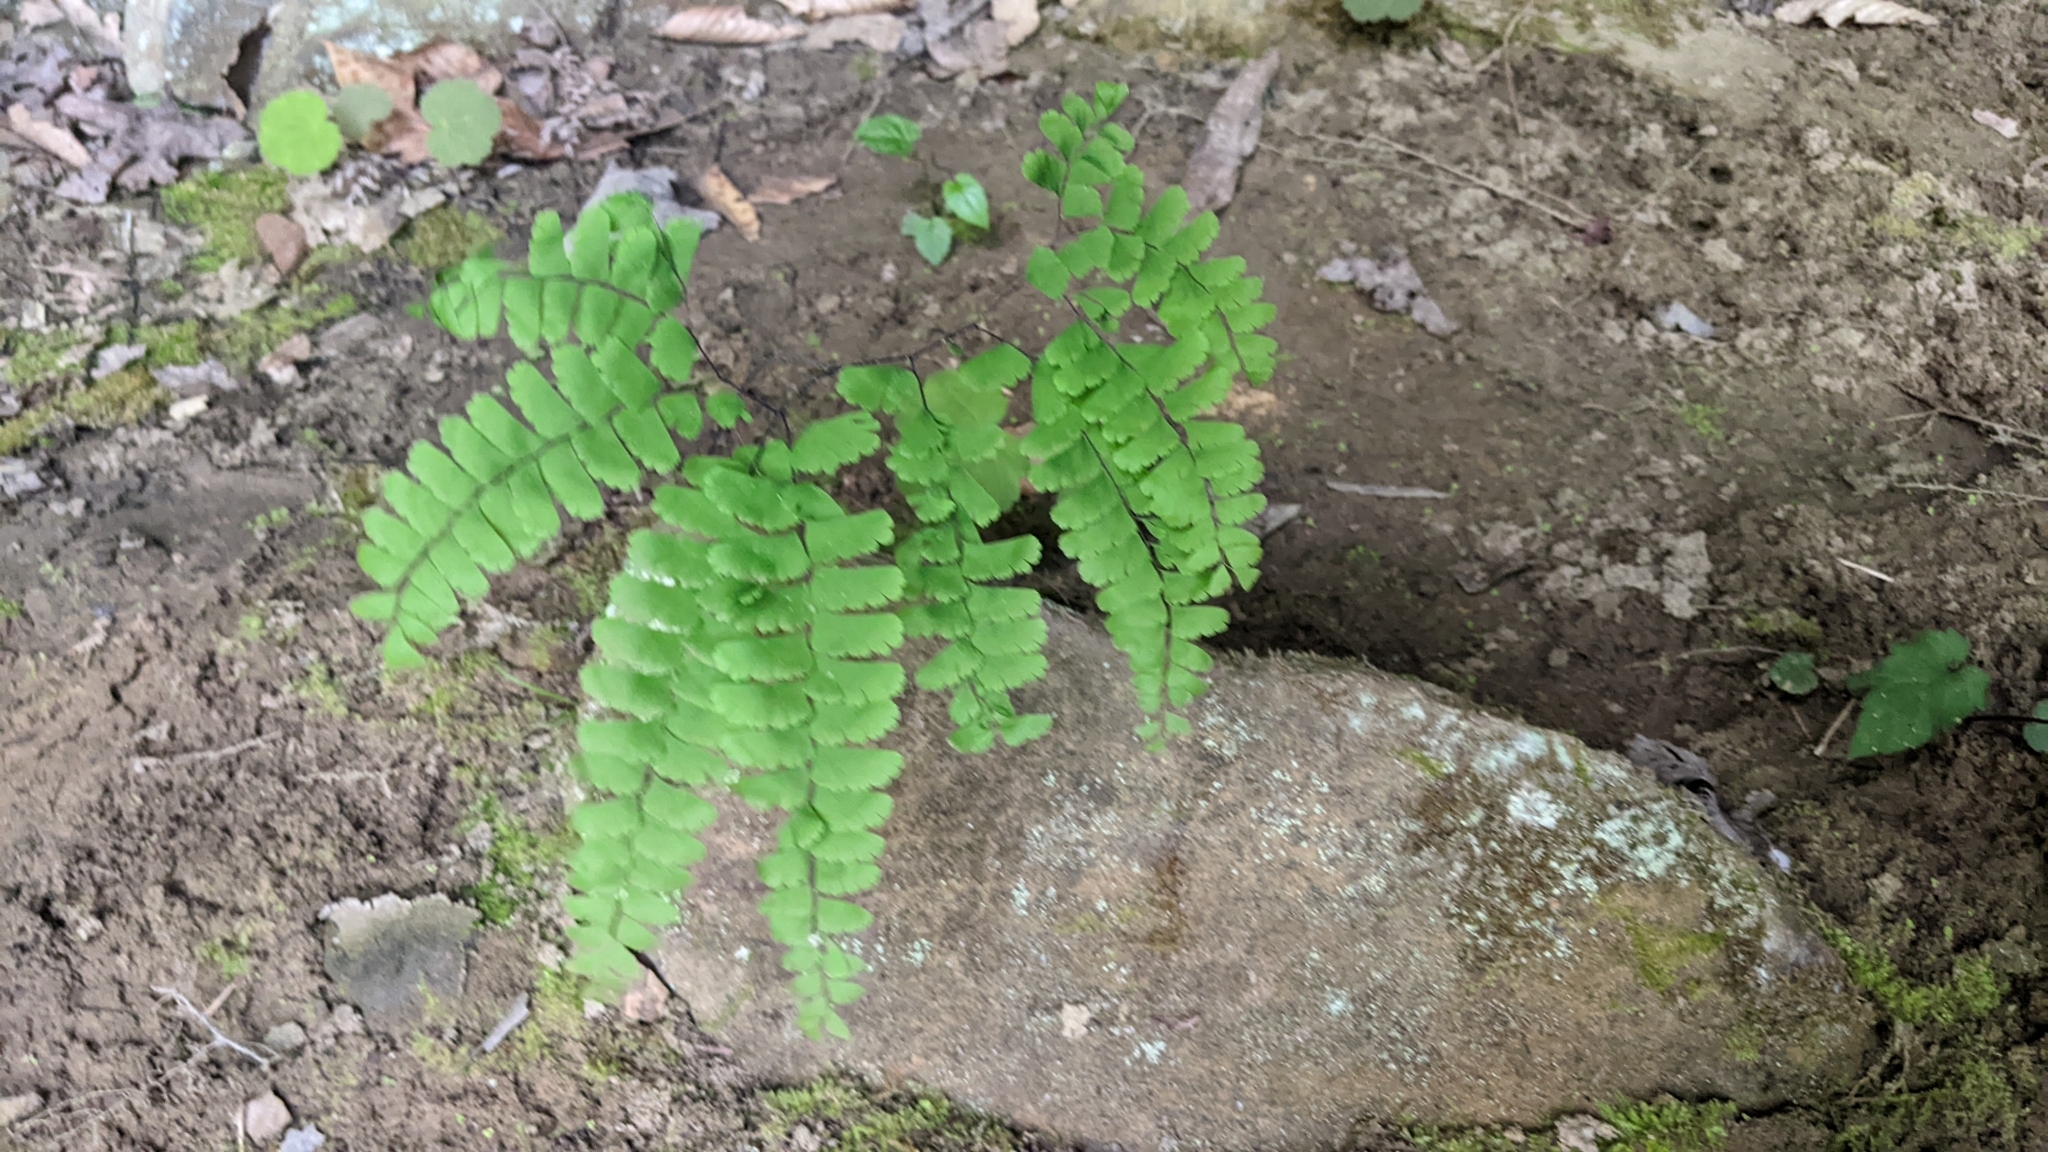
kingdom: Plantae
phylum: Tracheophyta
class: Polypodiopsida
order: Polypodiales
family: Pteridaceae
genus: Adiantum
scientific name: Adiantum pedatum
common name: Five-finger fern
